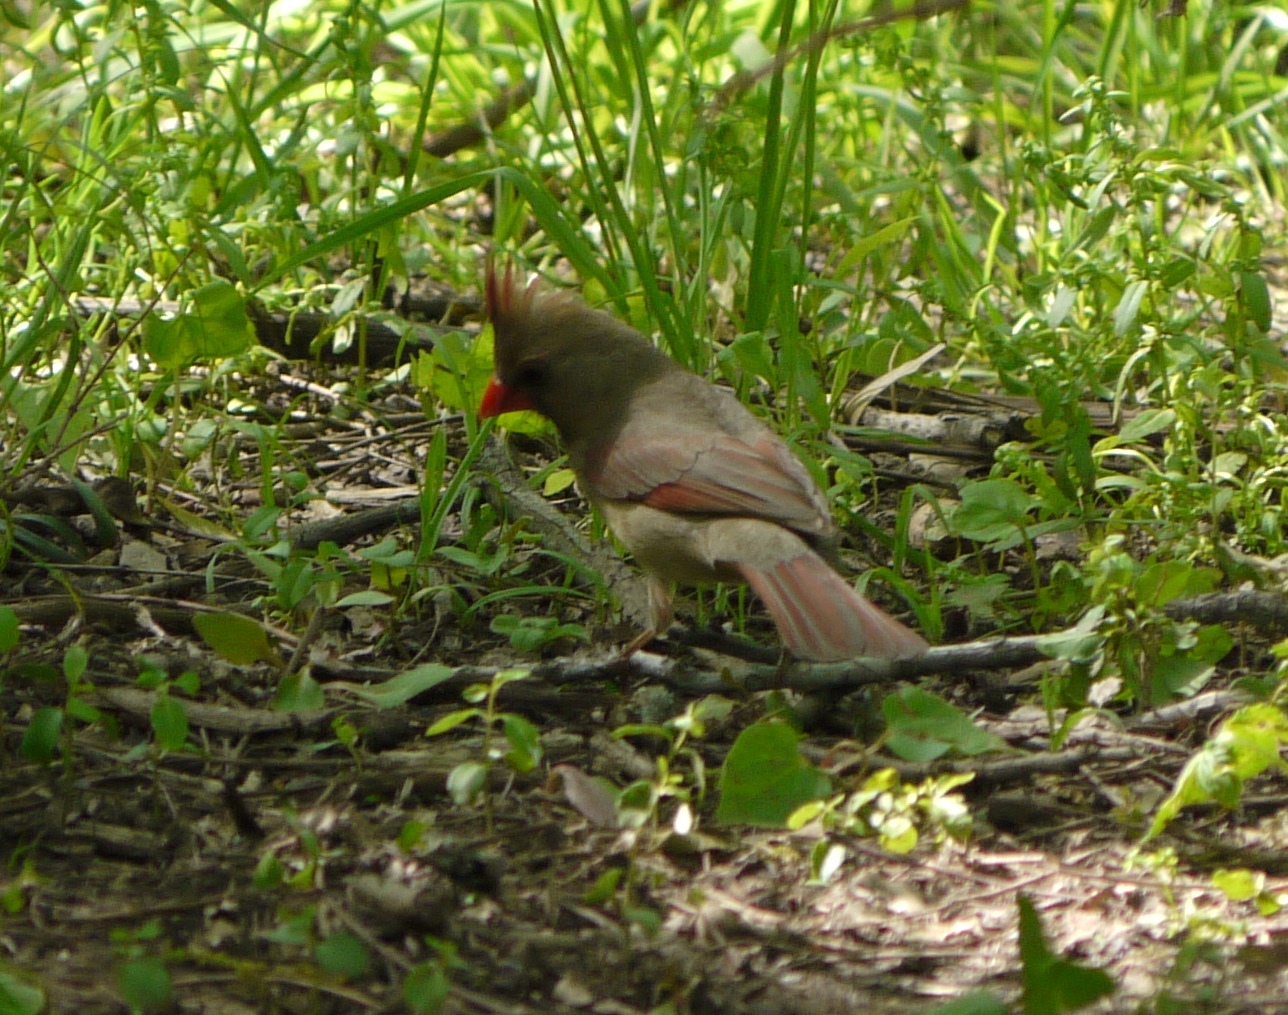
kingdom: Animalia
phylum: Chordata
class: Aves
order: Passeriformes
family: Cardinalidae
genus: Cardinalis
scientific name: Cardinalis cardinalis
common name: Northern cardinal
